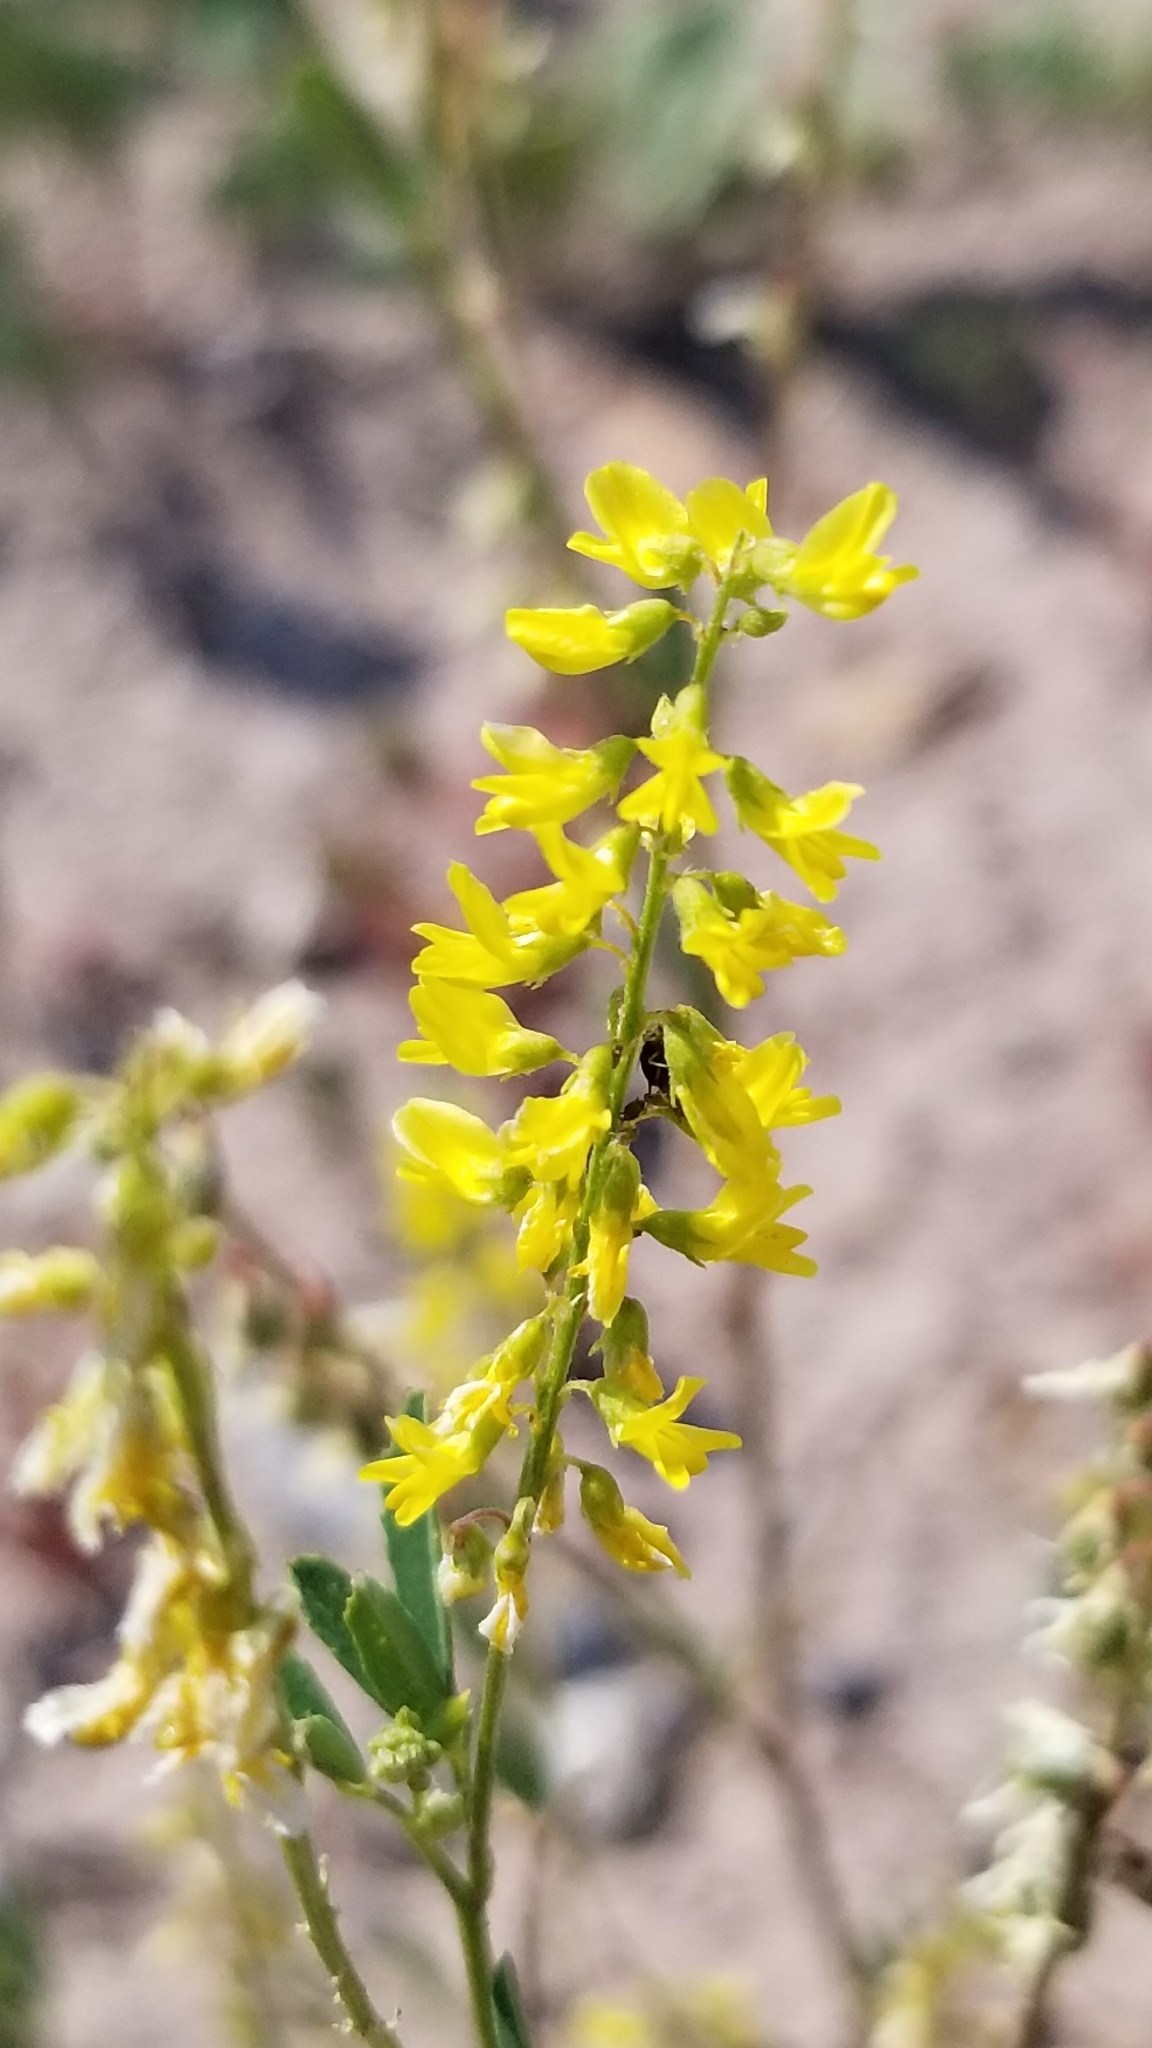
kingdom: Plantae
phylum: Tracheophyta
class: Magnoliopsida
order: Fabales
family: Fabaceae
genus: Melilotus
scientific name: Melilotus officinalis
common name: Sweetclover
